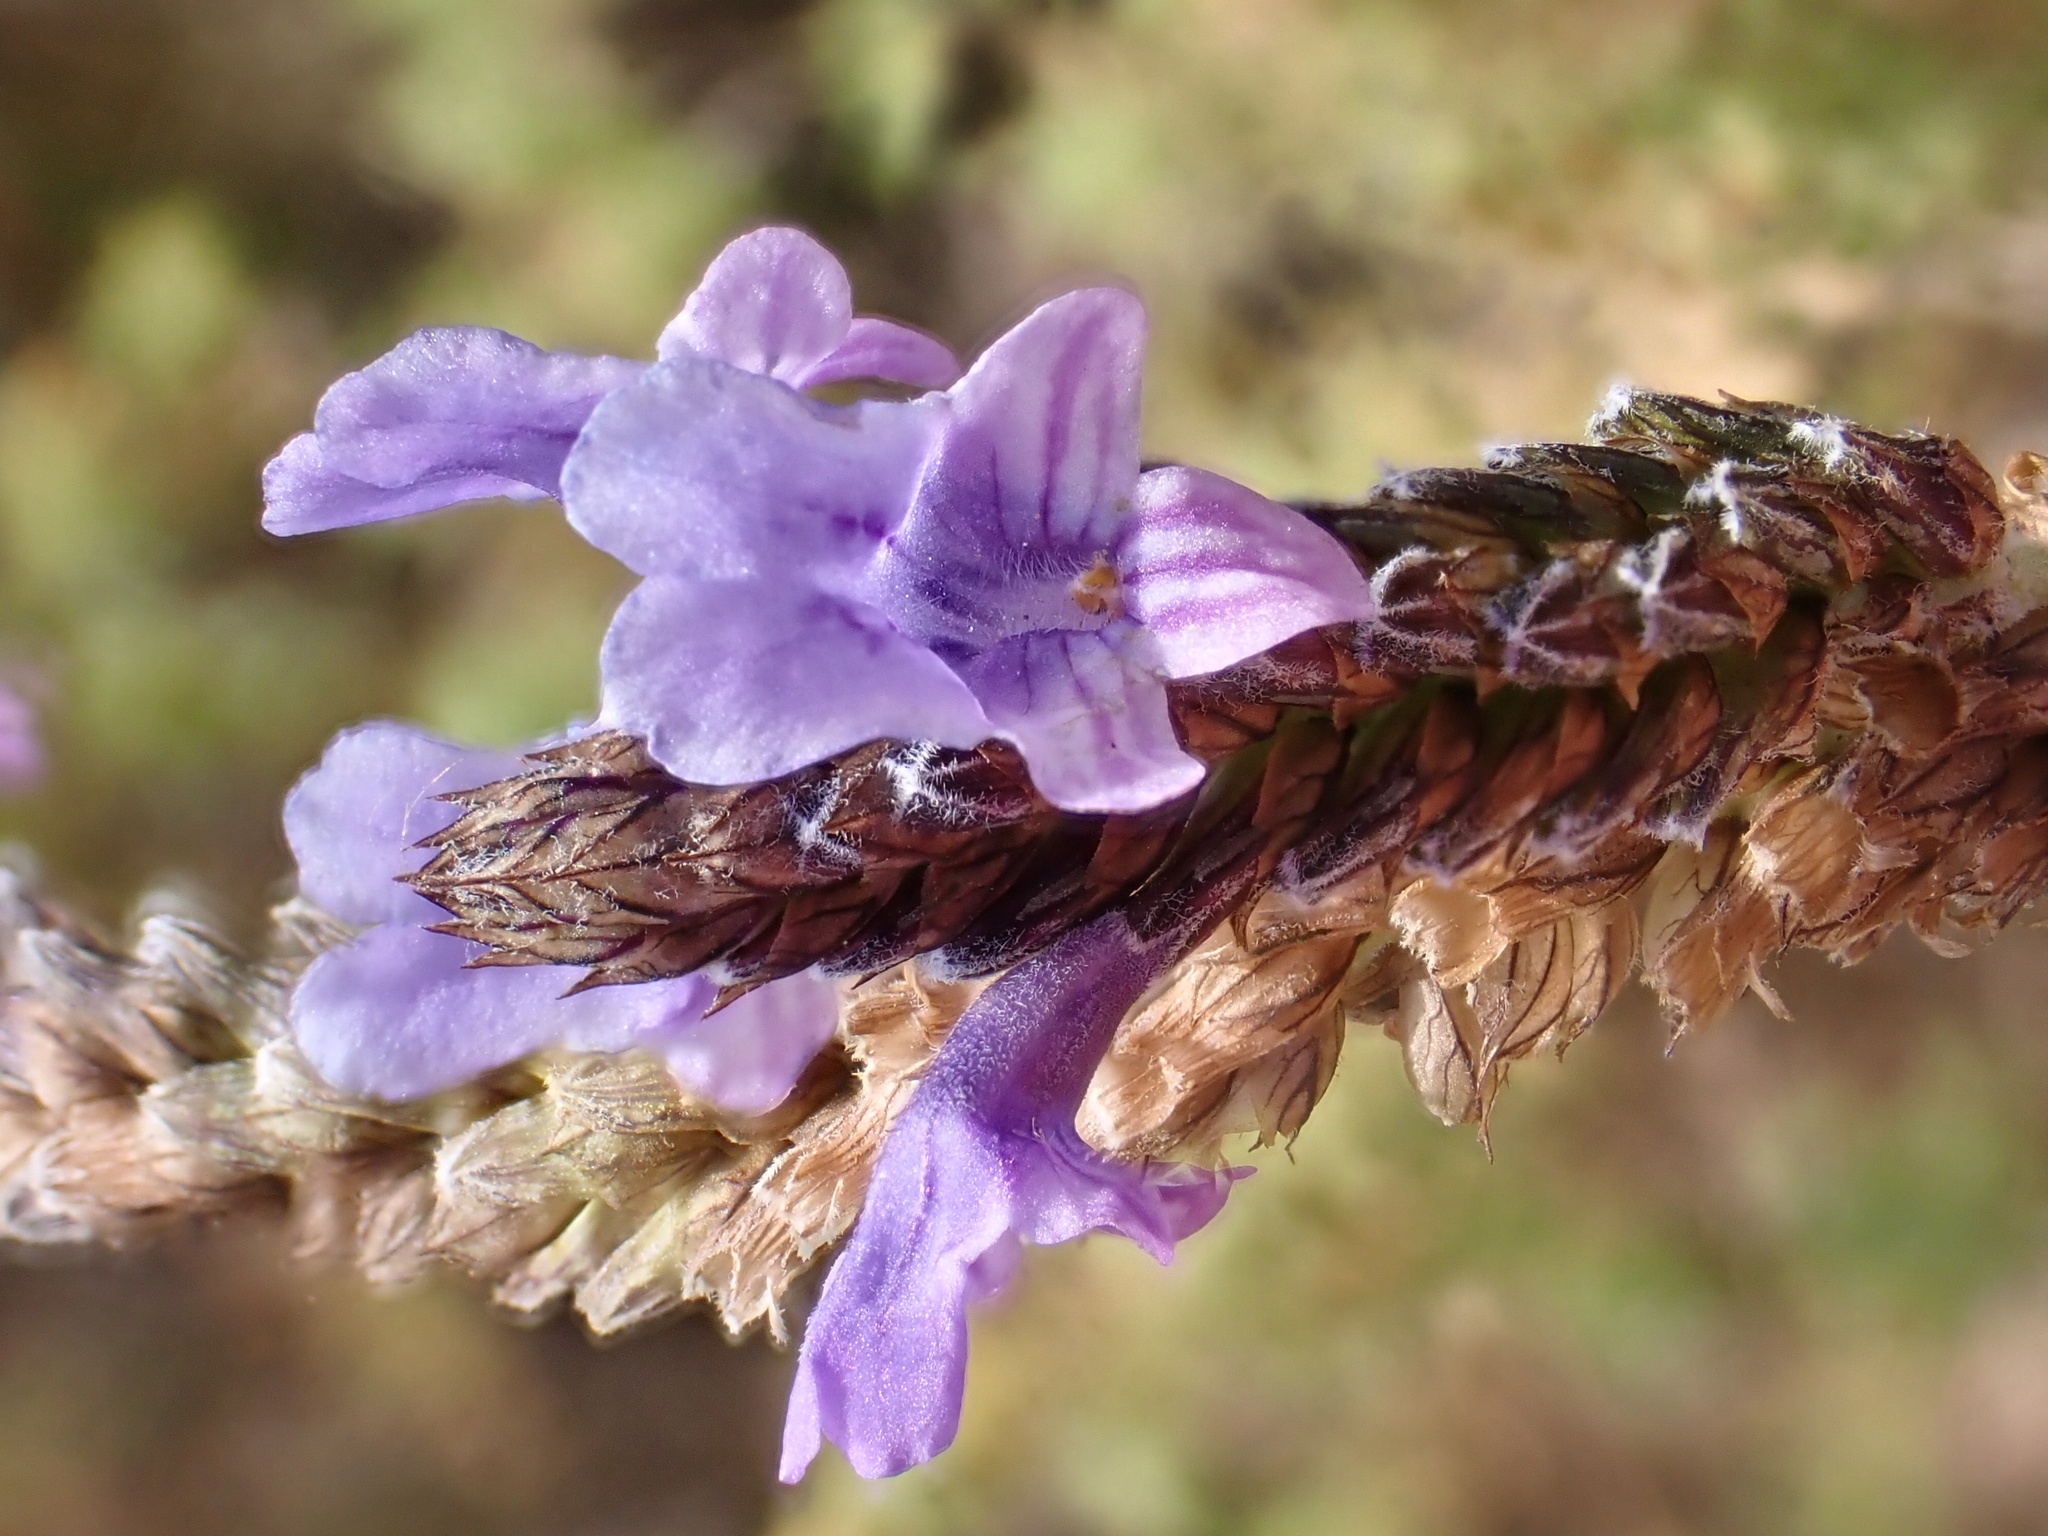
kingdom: Plantae
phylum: Tracheophyta
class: Magnoliopsida
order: Lamiales
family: Lamiaceae
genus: Lavandula
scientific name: Lavandula multifida
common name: Fern-leaf lavender
